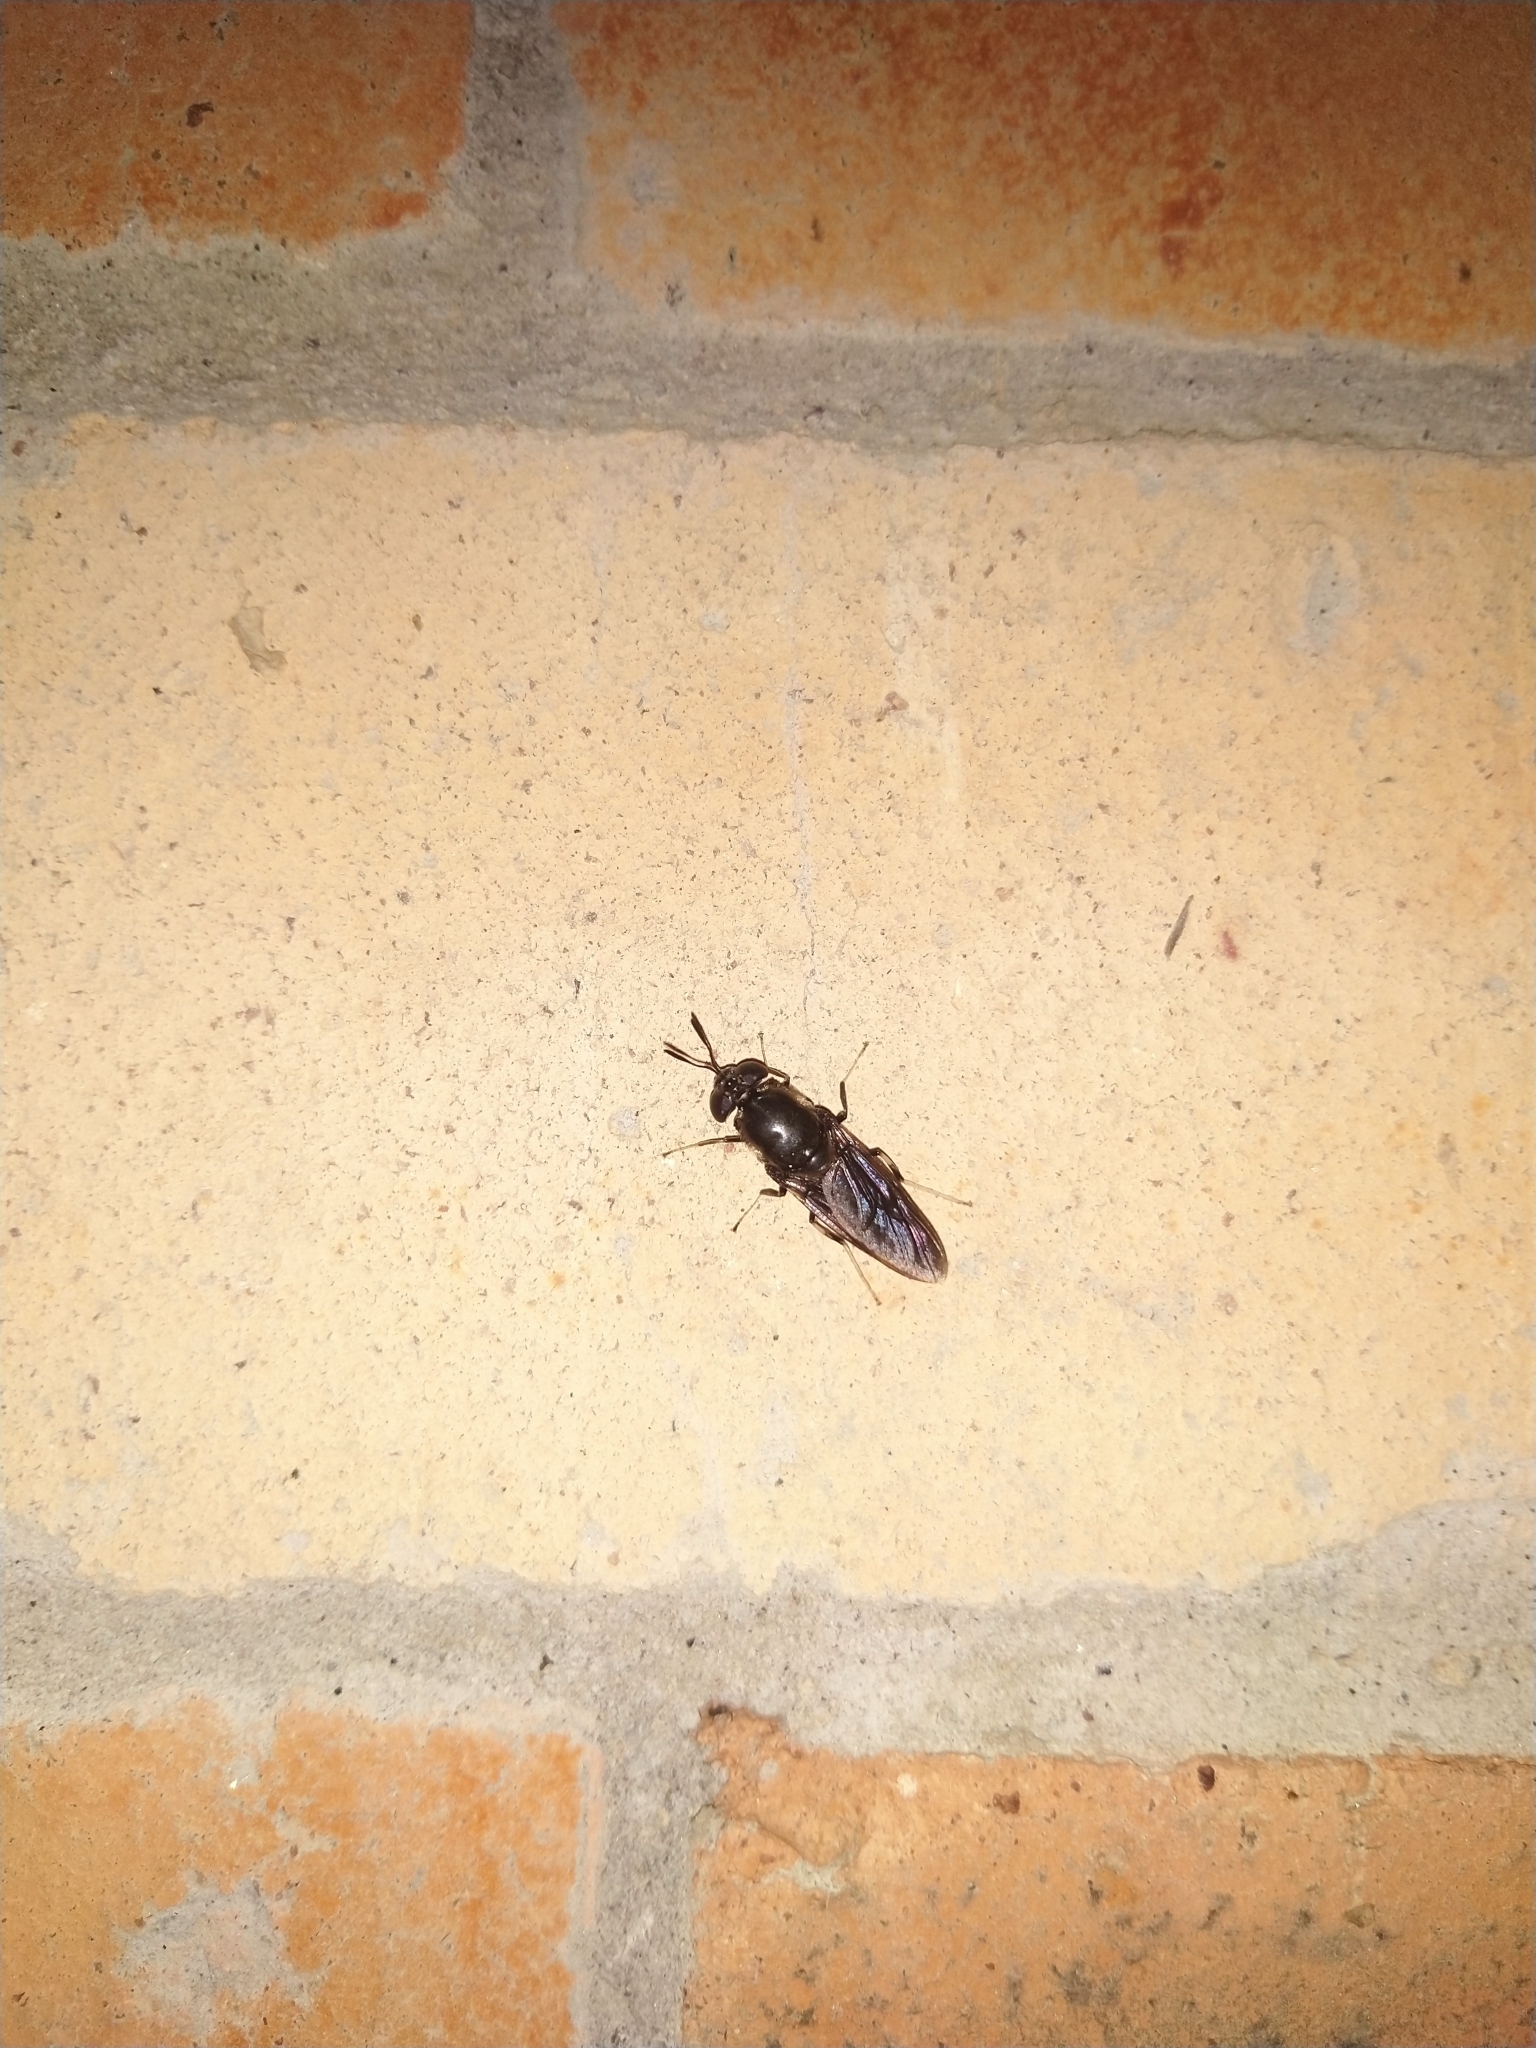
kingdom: Animalia
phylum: Arthropoda
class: Insecta
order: Diptera
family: Stratiomyidae
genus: Hermetia
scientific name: Hermetia illucens
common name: Black soldier fly
